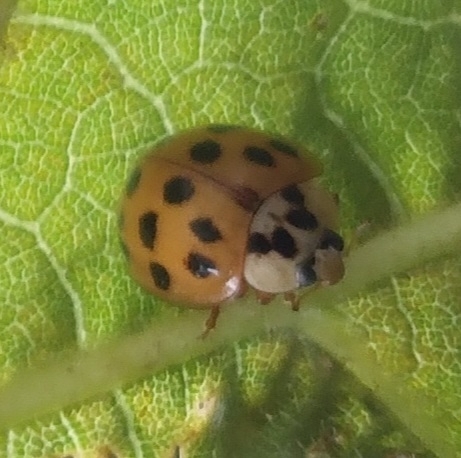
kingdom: Animalia
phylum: Arthropoda
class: Insecta
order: Coleoptera
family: Coccinellidae
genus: Harmonia
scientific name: Harmonia axyridis
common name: Harlequin ladybird
